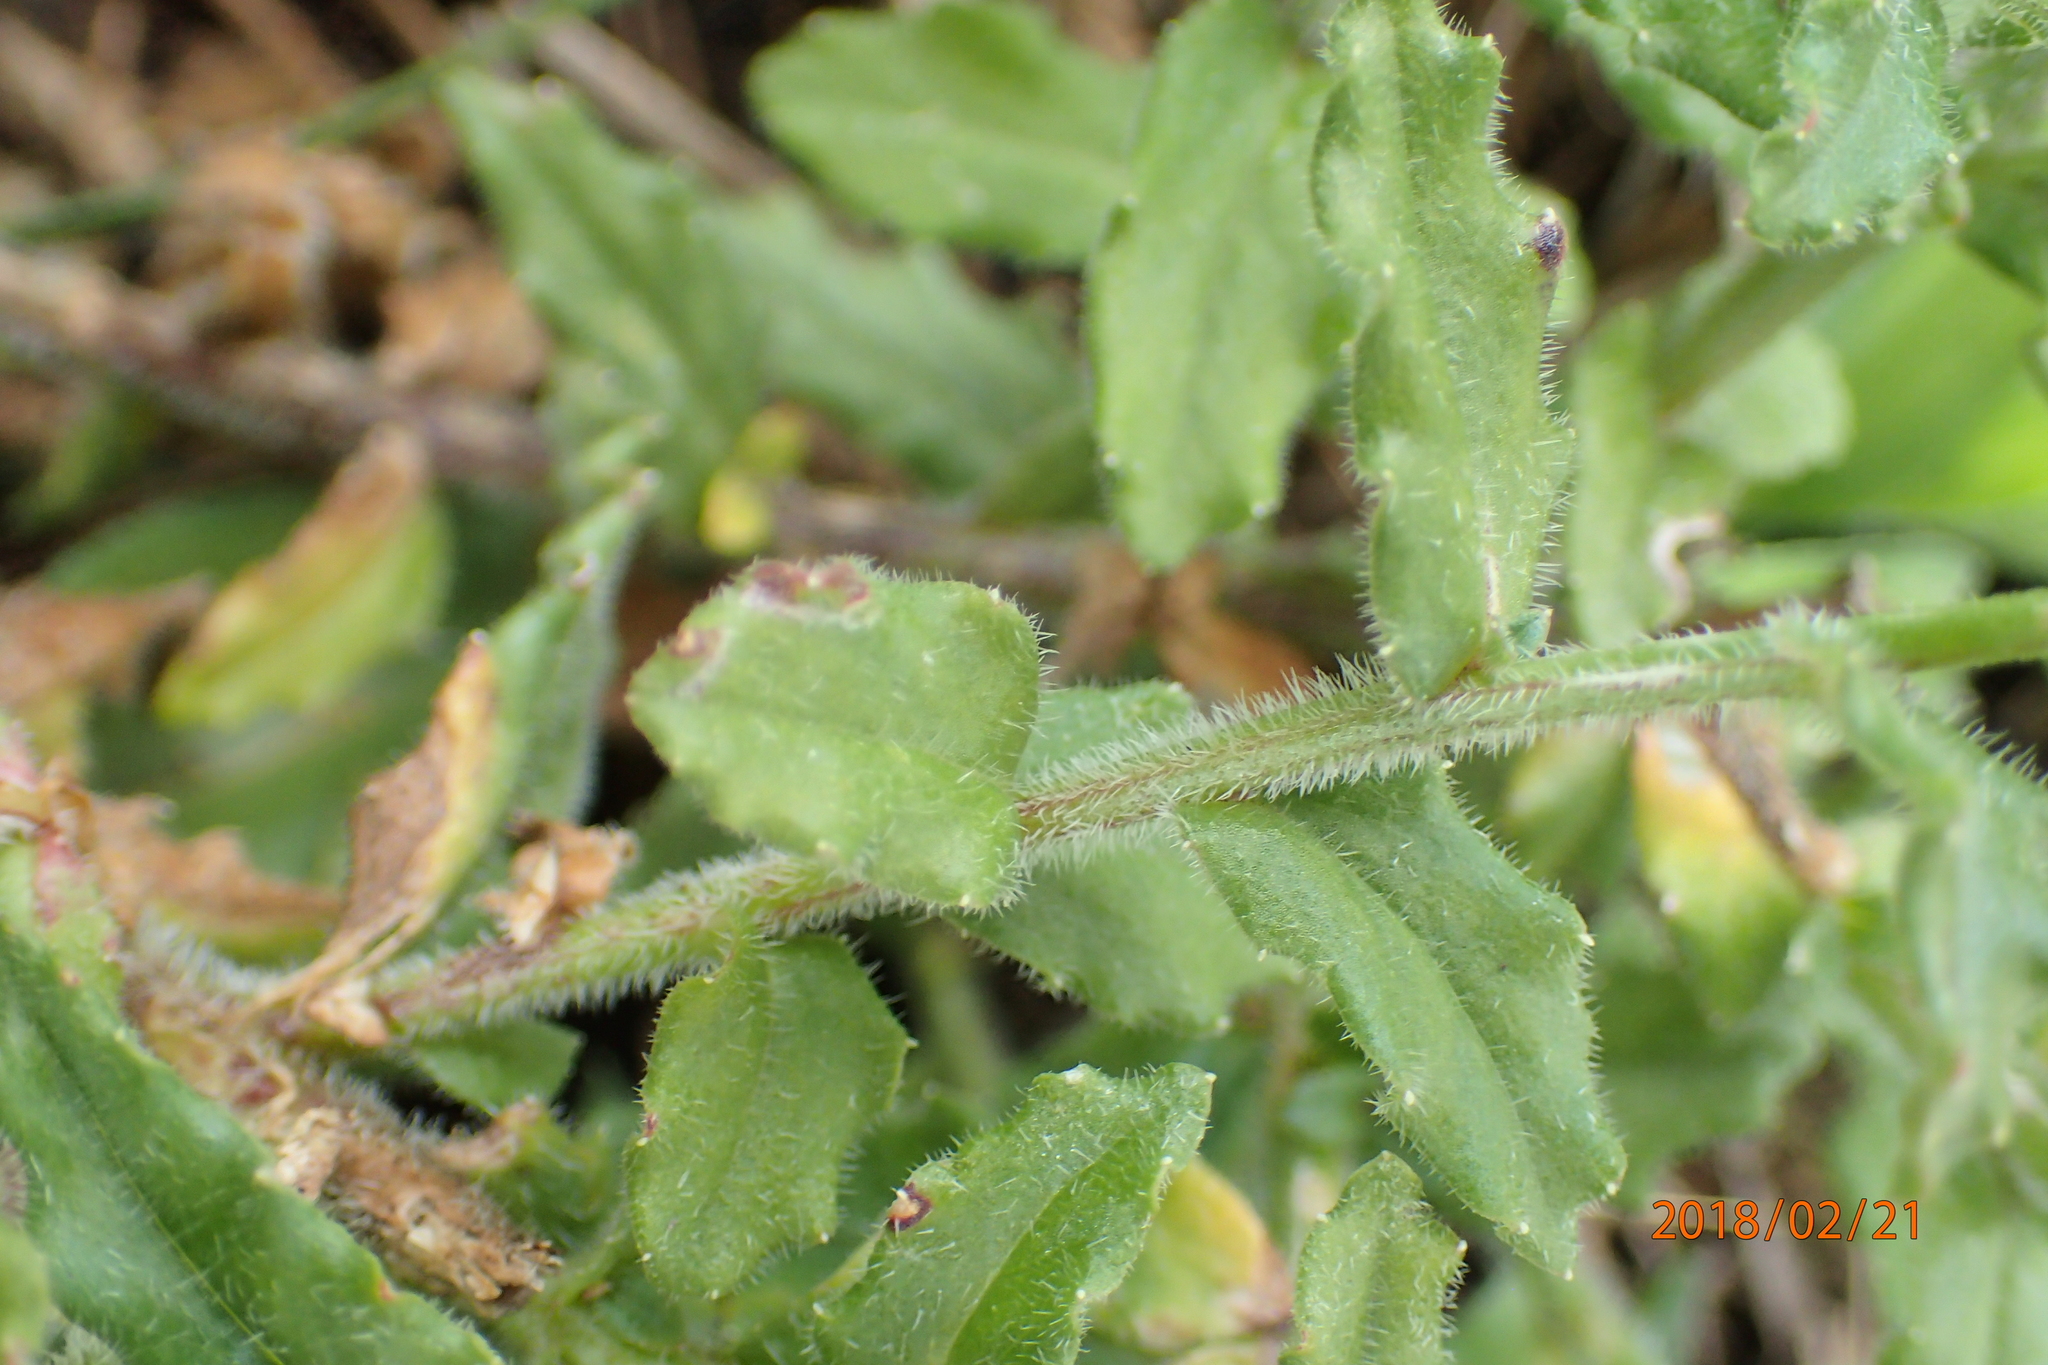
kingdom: Plantae
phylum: Tracheophyta
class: Magnoliopsida
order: Asterales
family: Campanulaceae
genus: Wahlenbergia
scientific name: Wahlenbergia cuspidata
